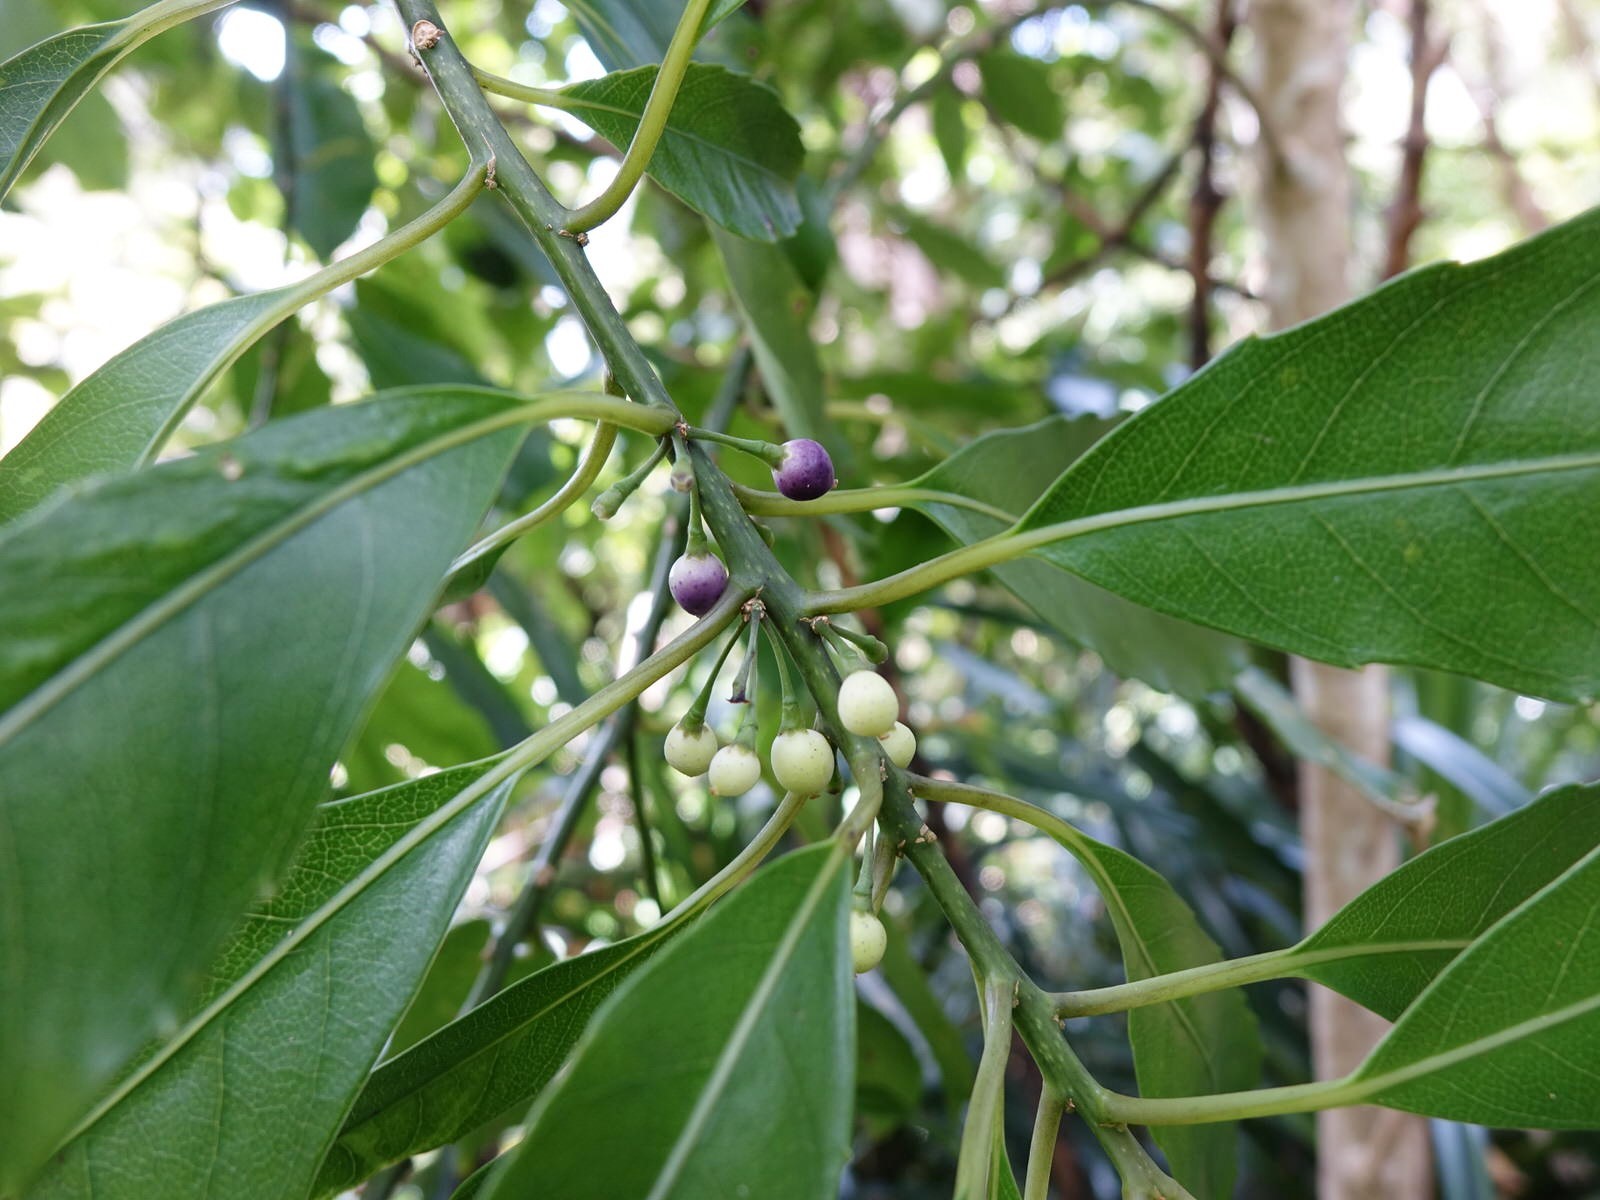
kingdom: Plantae
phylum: Tracheophyta
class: Magnoliopsida
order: Malpighiales
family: Violaceae
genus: Melicytus
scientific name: Melicytus macrophyllus
